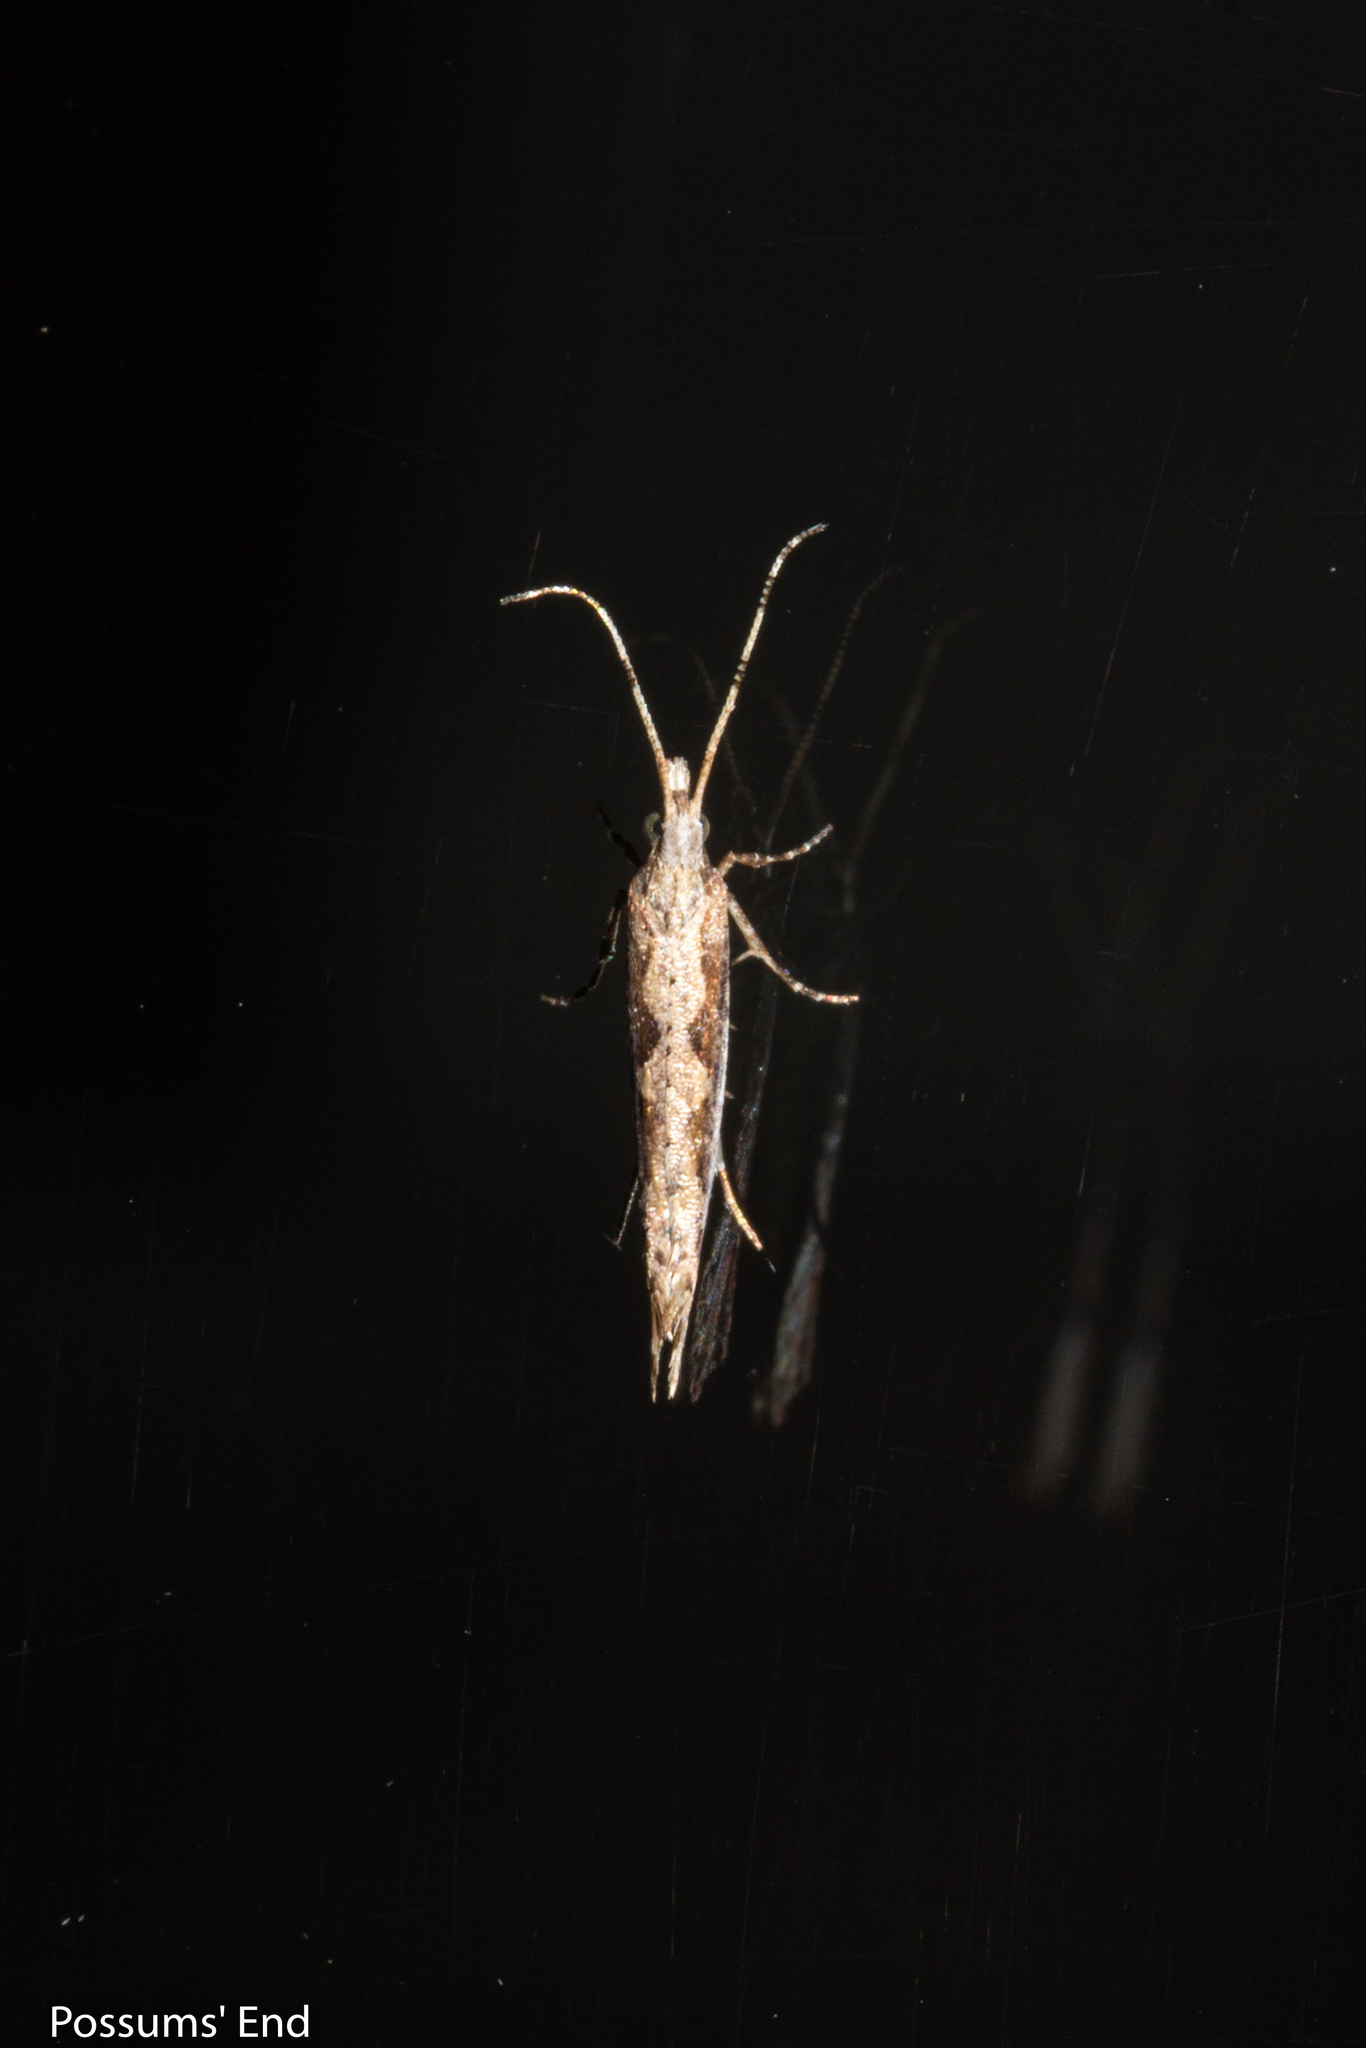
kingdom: Animalia
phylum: Arthropoda
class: Insecta
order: Lepidoptera
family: Plutellidae
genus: Plutella
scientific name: Plutella xylostella
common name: Diamond-back moth
